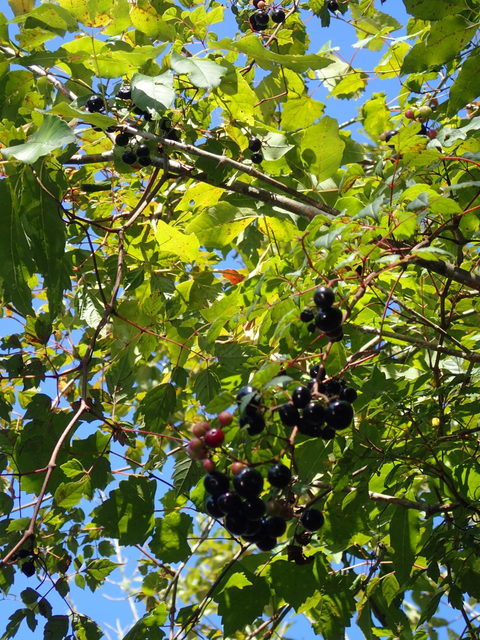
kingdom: Plantae
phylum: Tracheophyta
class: Magnoliopsida
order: Vitales
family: Vitaceae
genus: Nekemias
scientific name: Nekemias arborea
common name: Peppervine
